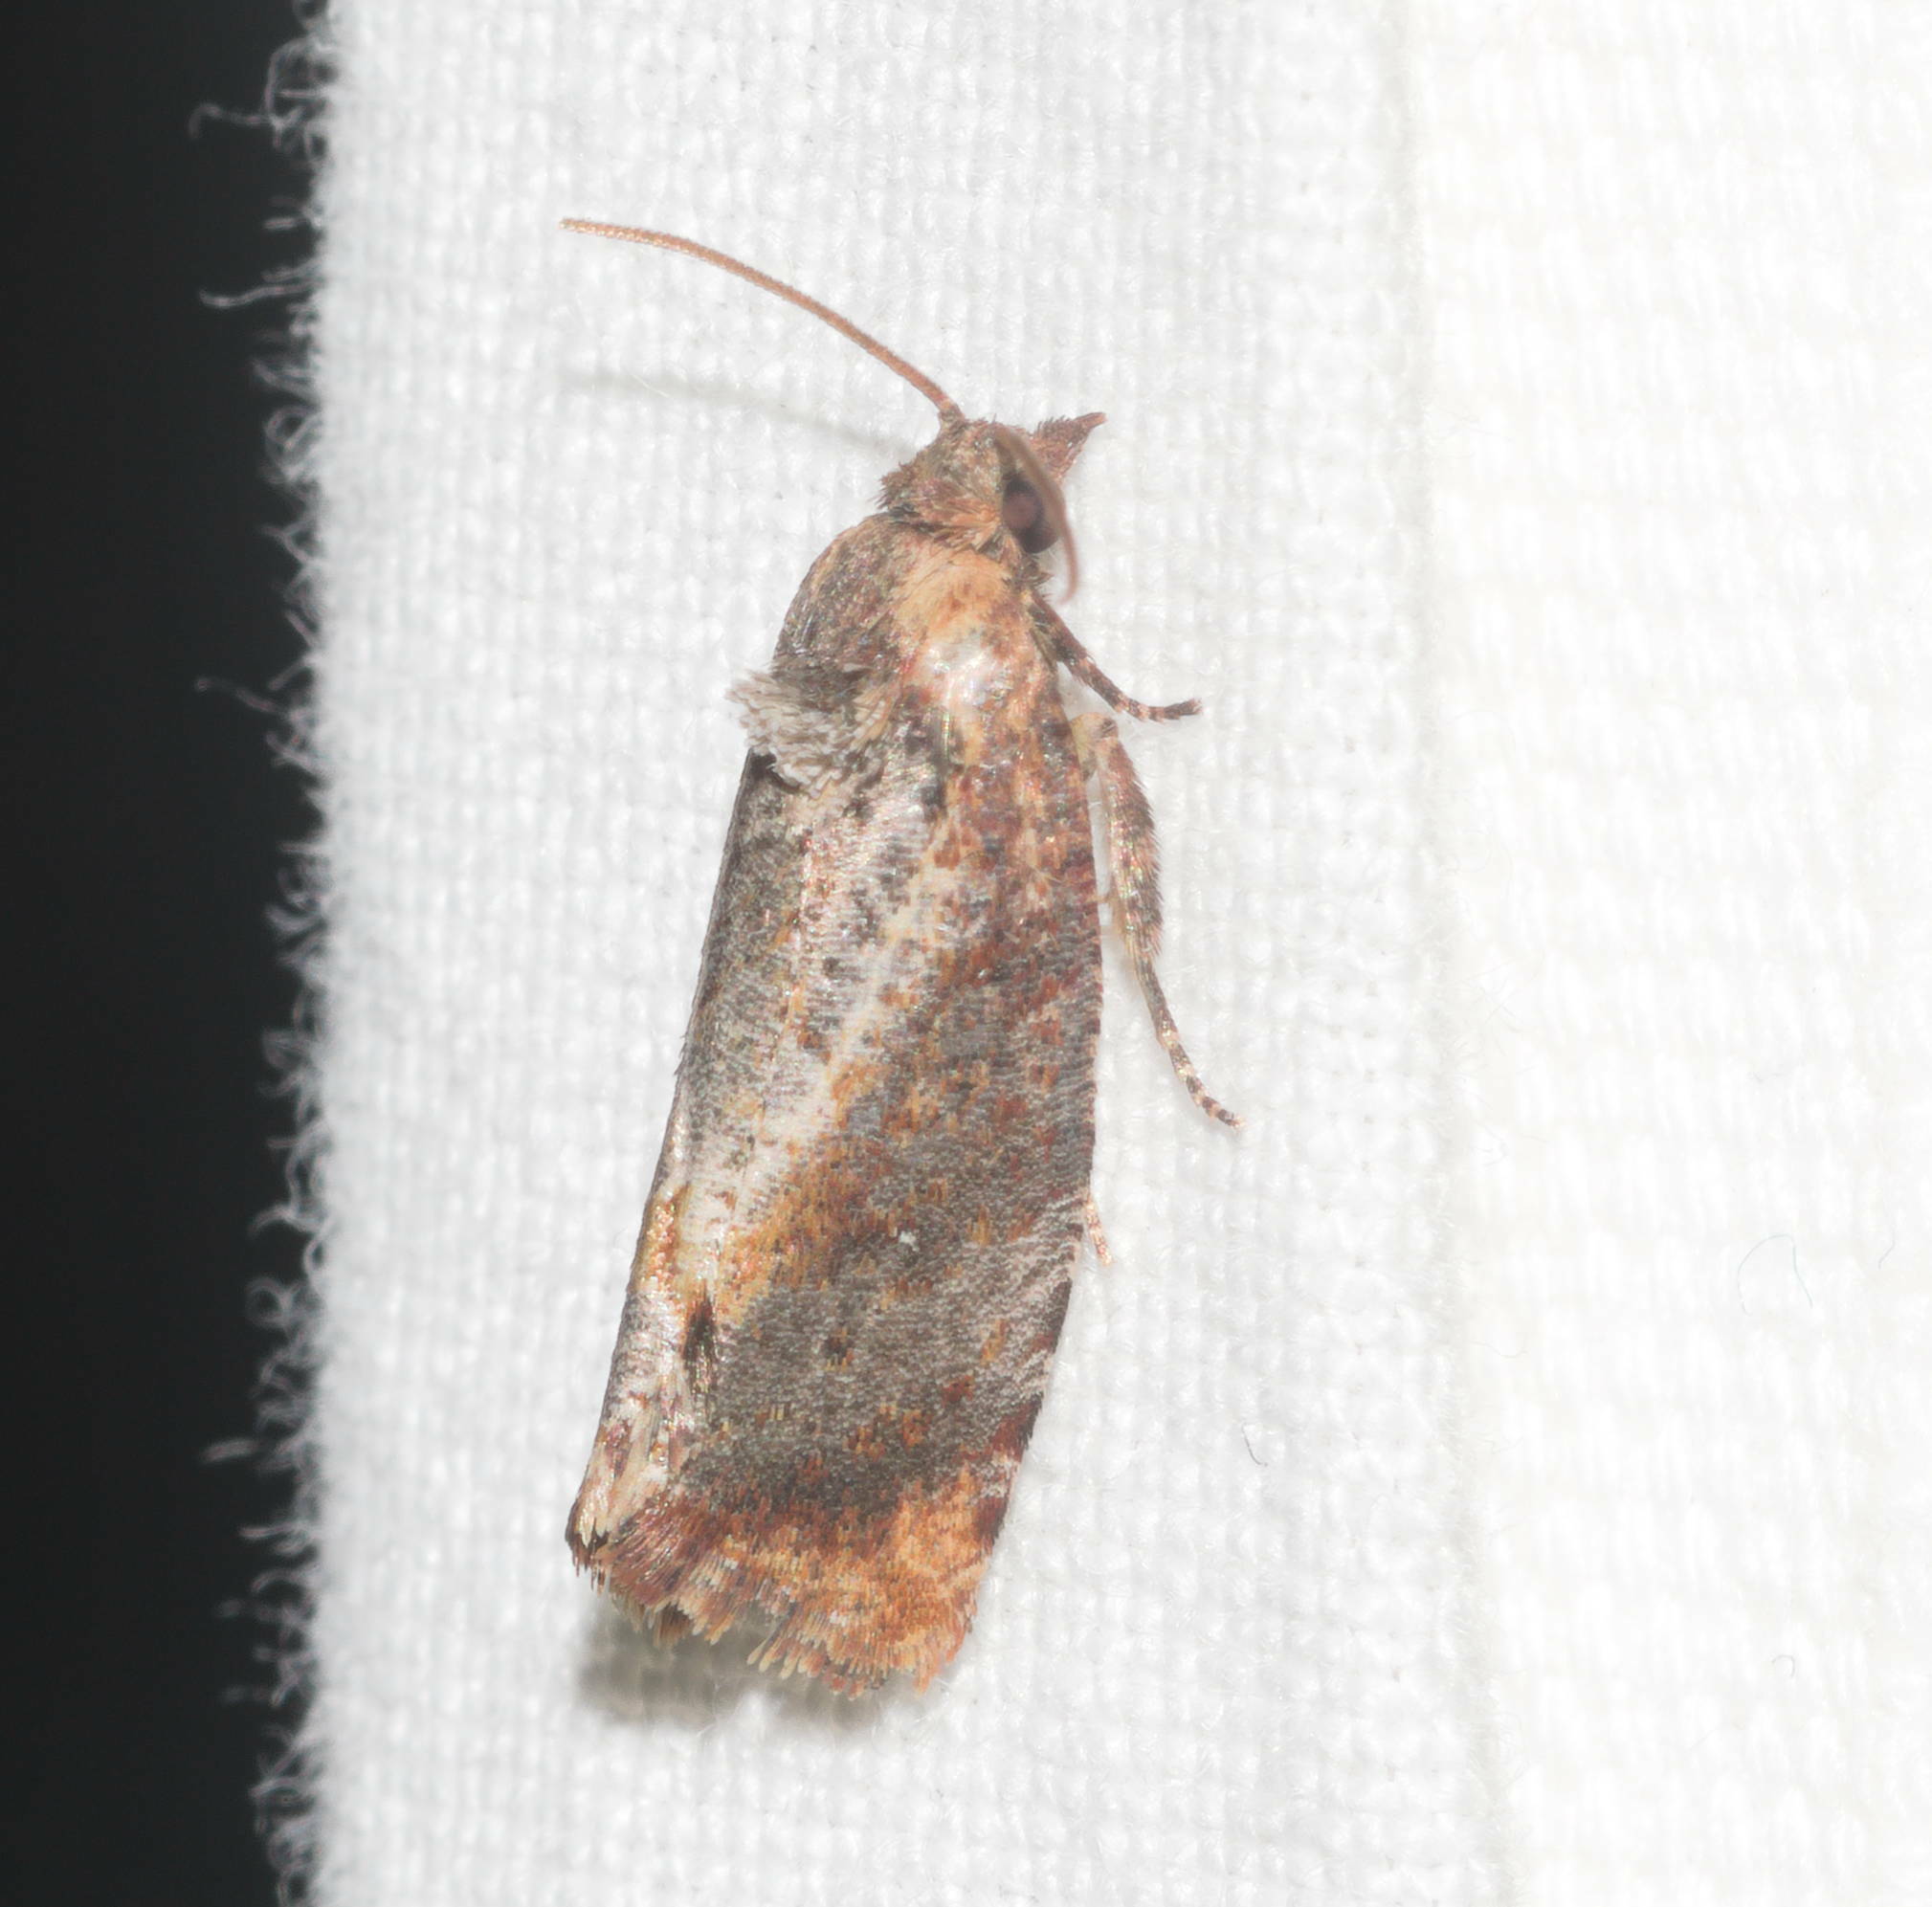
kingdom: Animalia
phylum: Arthropoda
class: Insecta
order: Lepidoptera
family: Tortricidae
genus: Cryptophlebia
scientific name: Cryptophlebia illepida
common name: Moth
